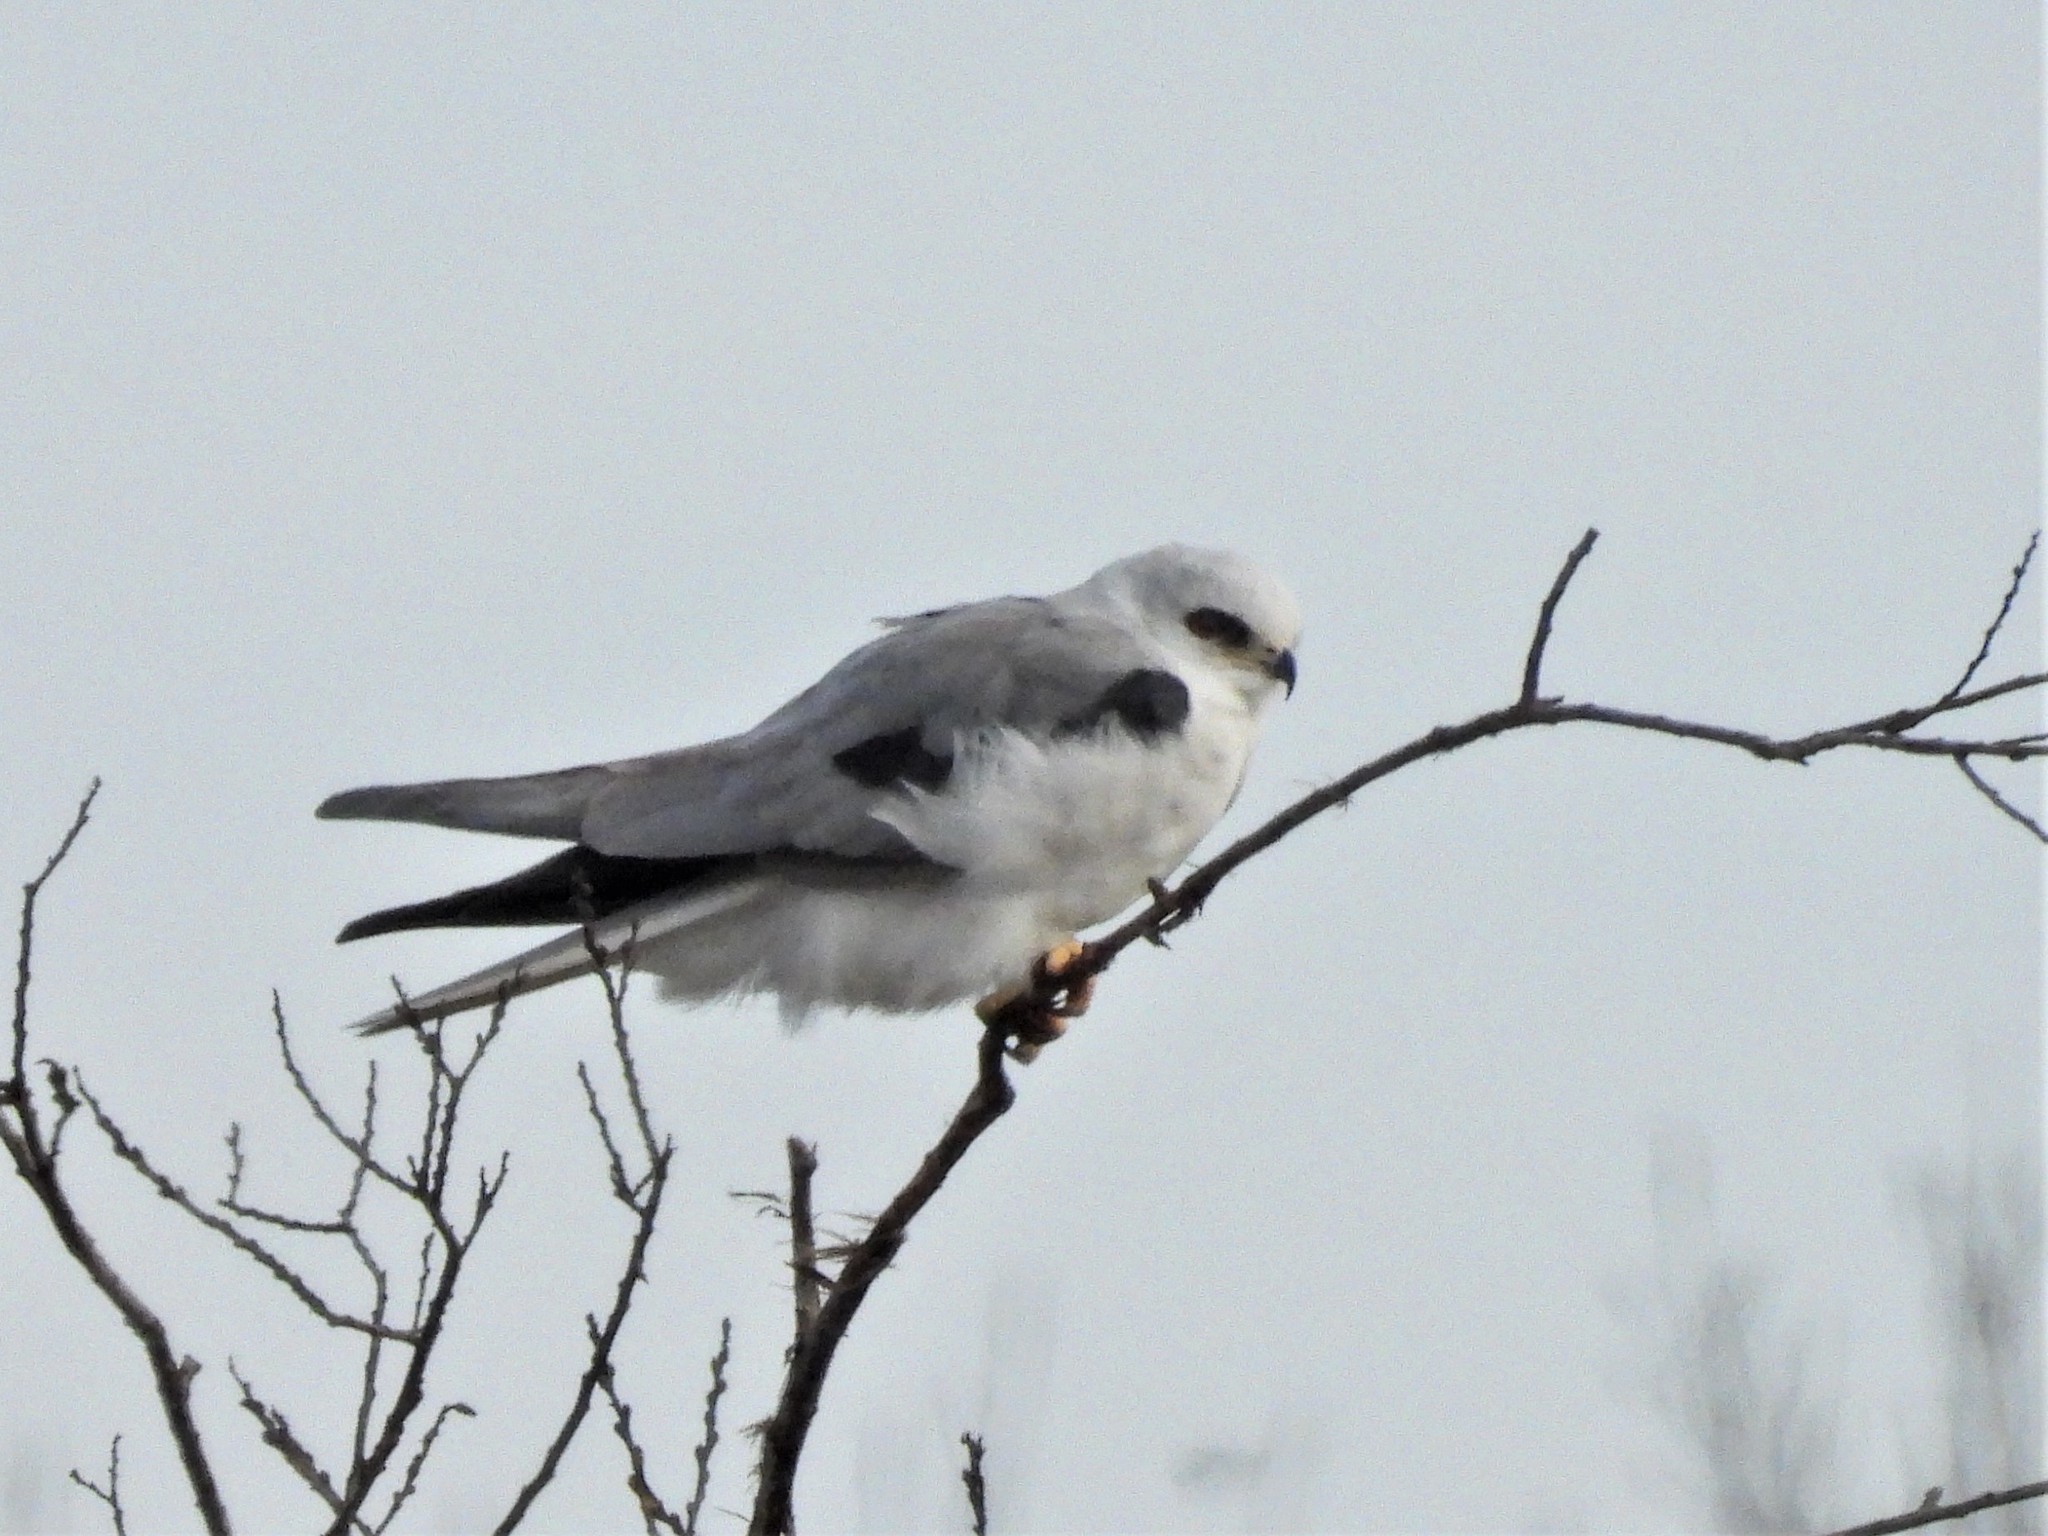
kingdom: Animalia
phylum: Chordata
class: Aves
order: Accipitriformes
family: Accipitridae
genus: Elanus
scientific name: Elanus leucurus
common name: White-tailed kite
